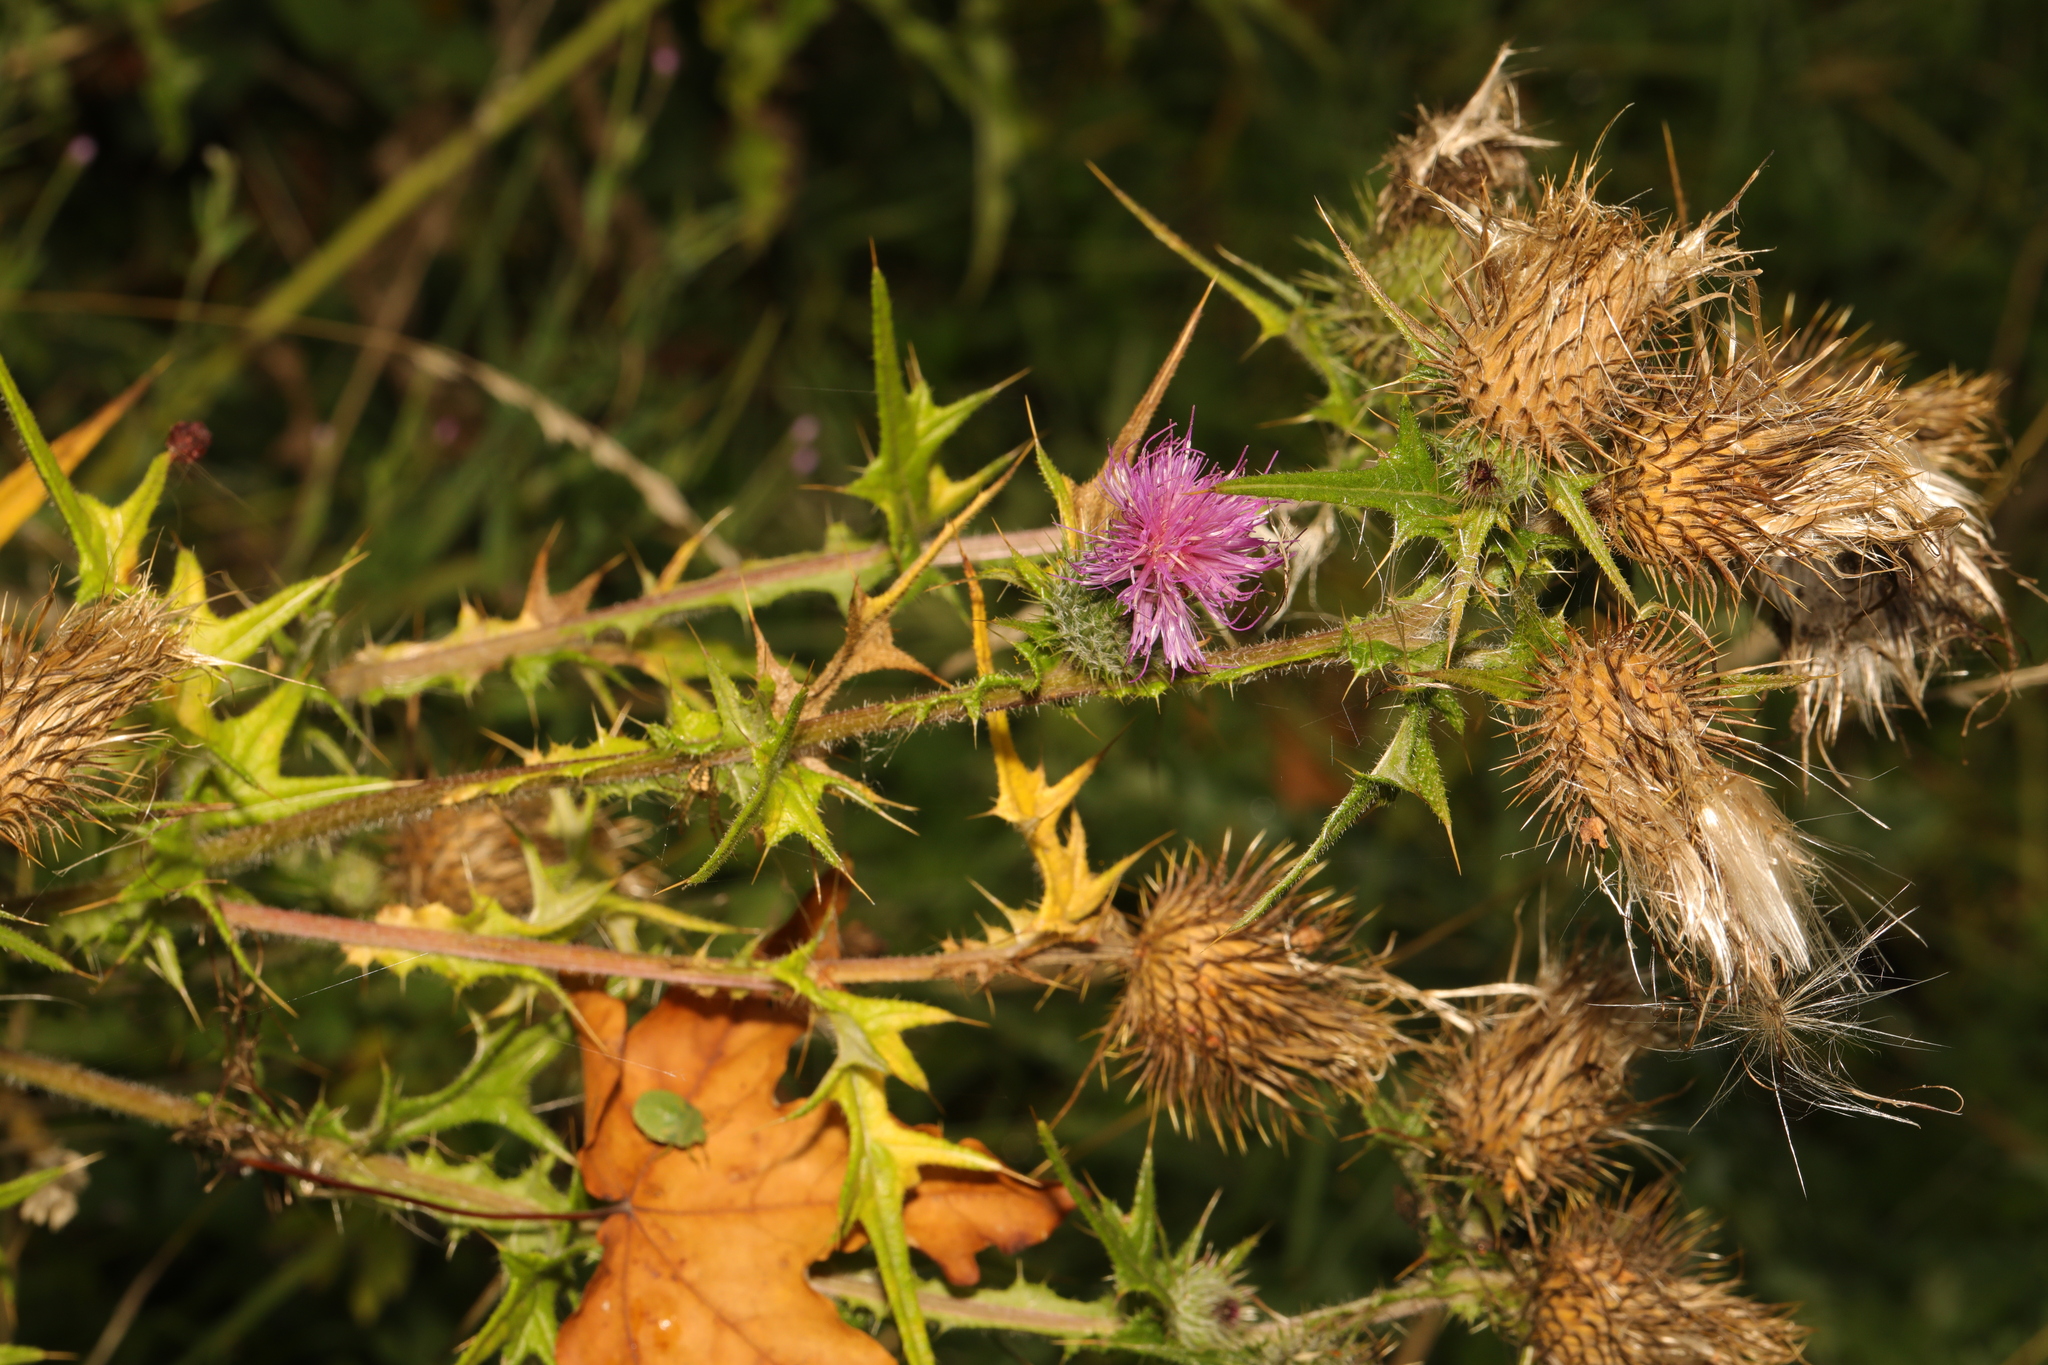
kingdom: Plantae
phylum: Tracheophyta
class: Magnoliopsida
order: Asterales
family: Asteraceae
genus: Cirsium
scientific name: Cirsium vulgare
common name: Bull thistle
